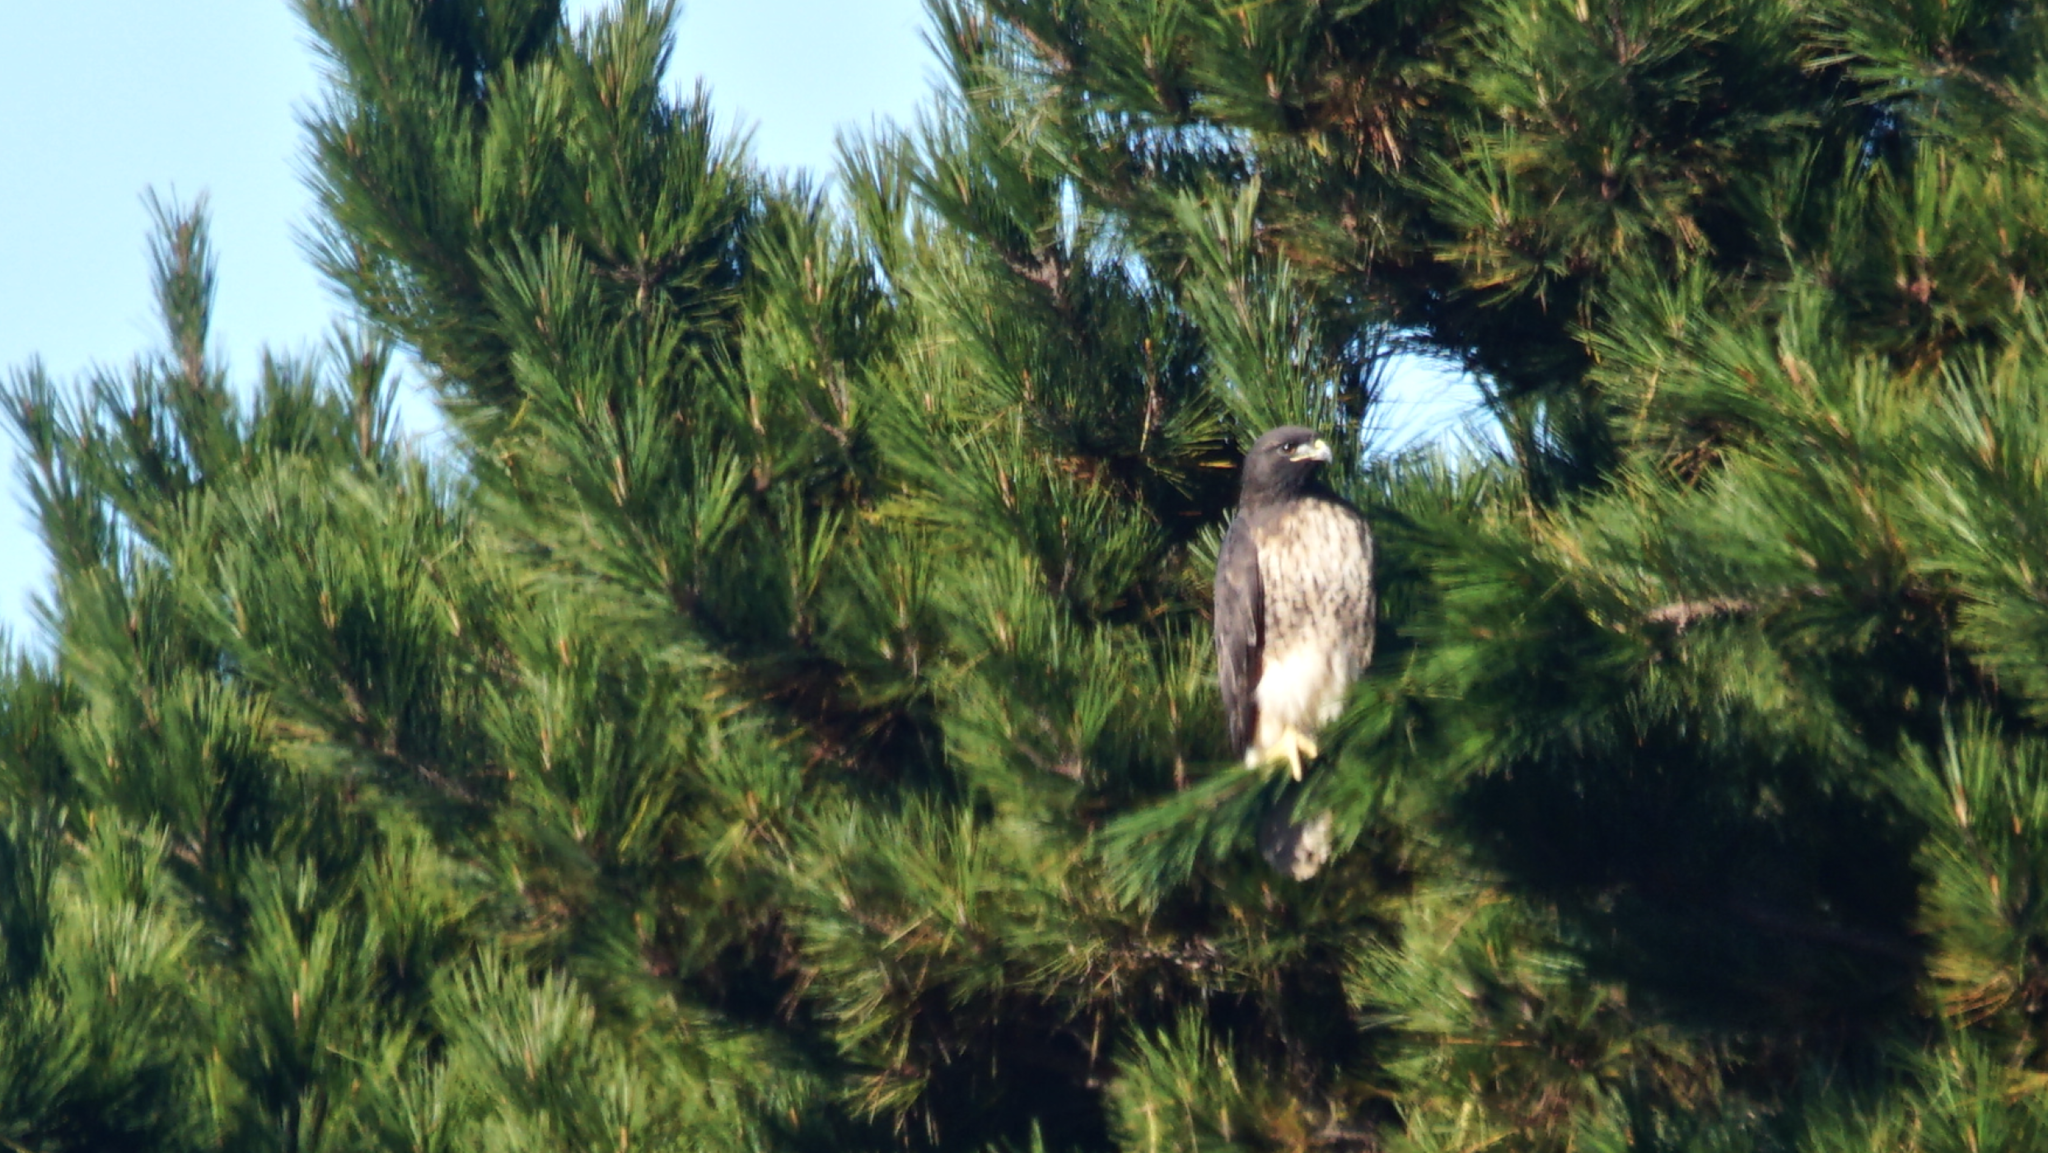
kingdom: Animalia
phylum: Chordata
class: Aves
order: Accipitriformes
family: Accipitridae
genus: Buteo
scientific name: Buteo jamaicensis
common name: Red-tailed hawk
